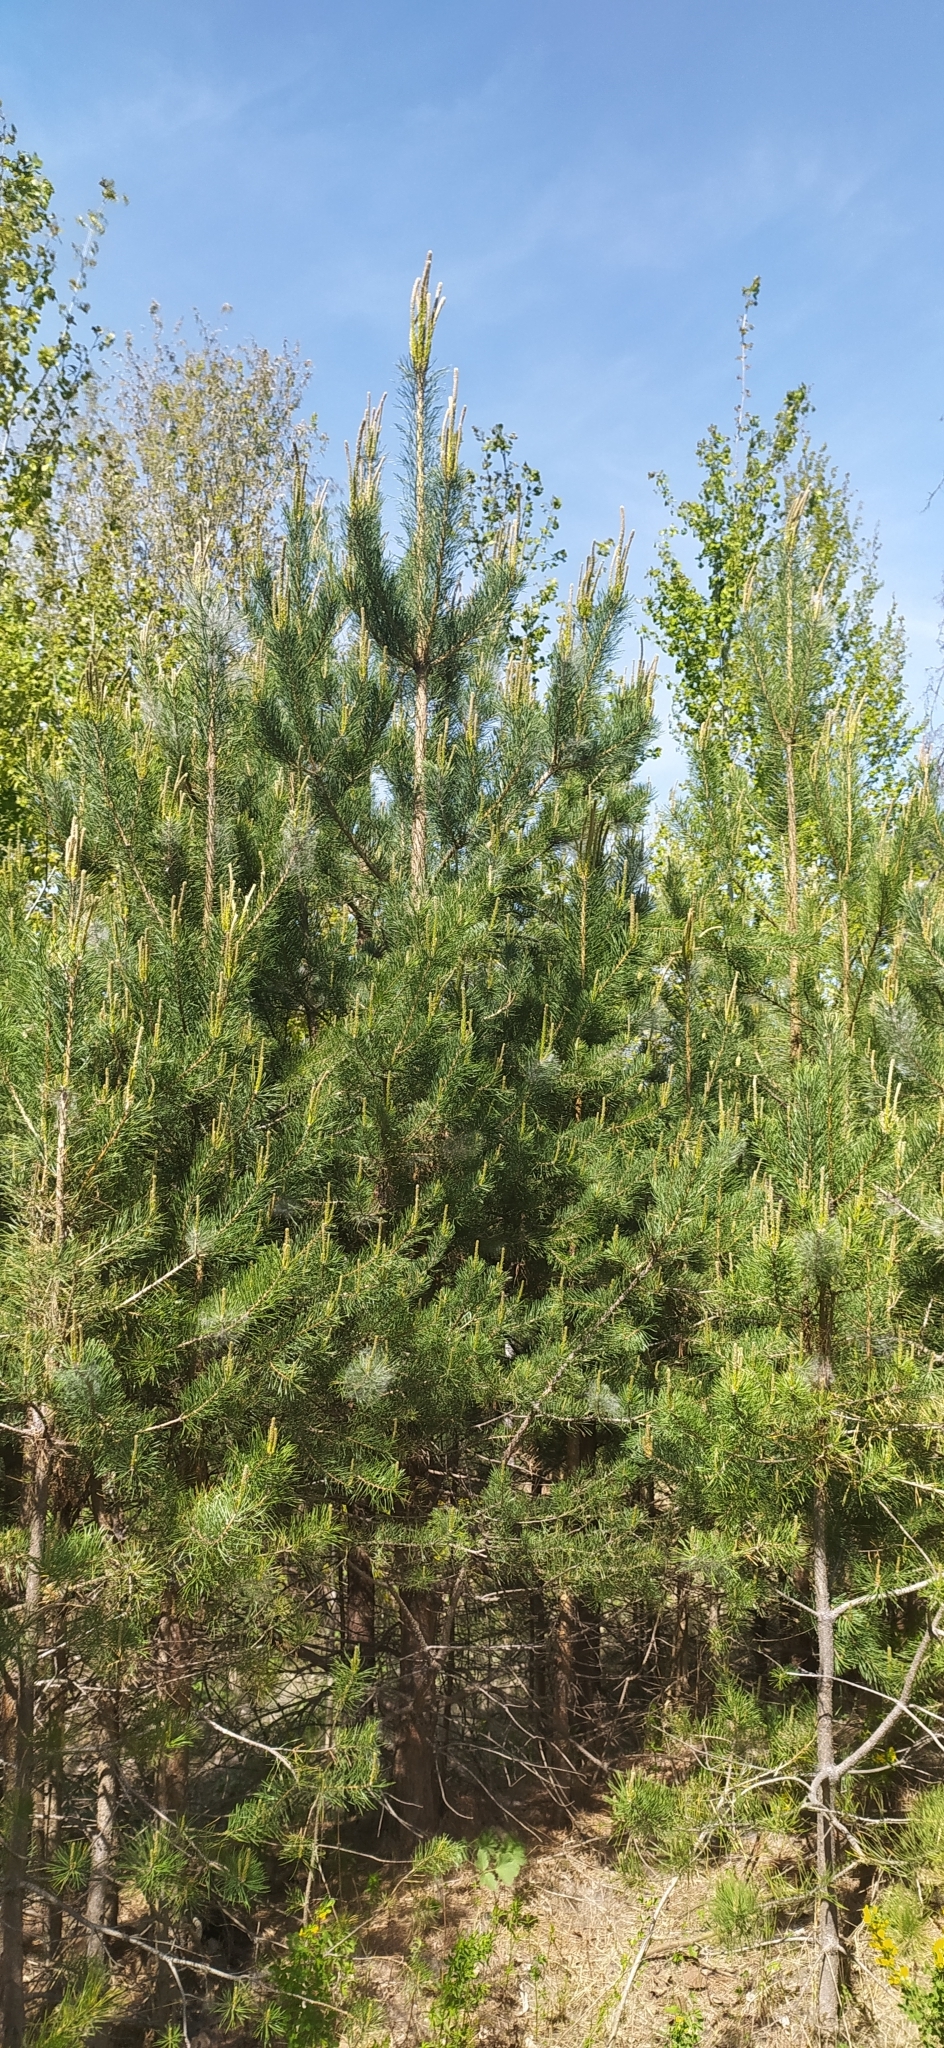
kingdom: Plantae
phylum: Tracheophyta
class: Pinopsida
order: Pinales
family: Pinaceae
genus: Pinus
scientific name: Pinus sylvestris
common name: Scots pine
